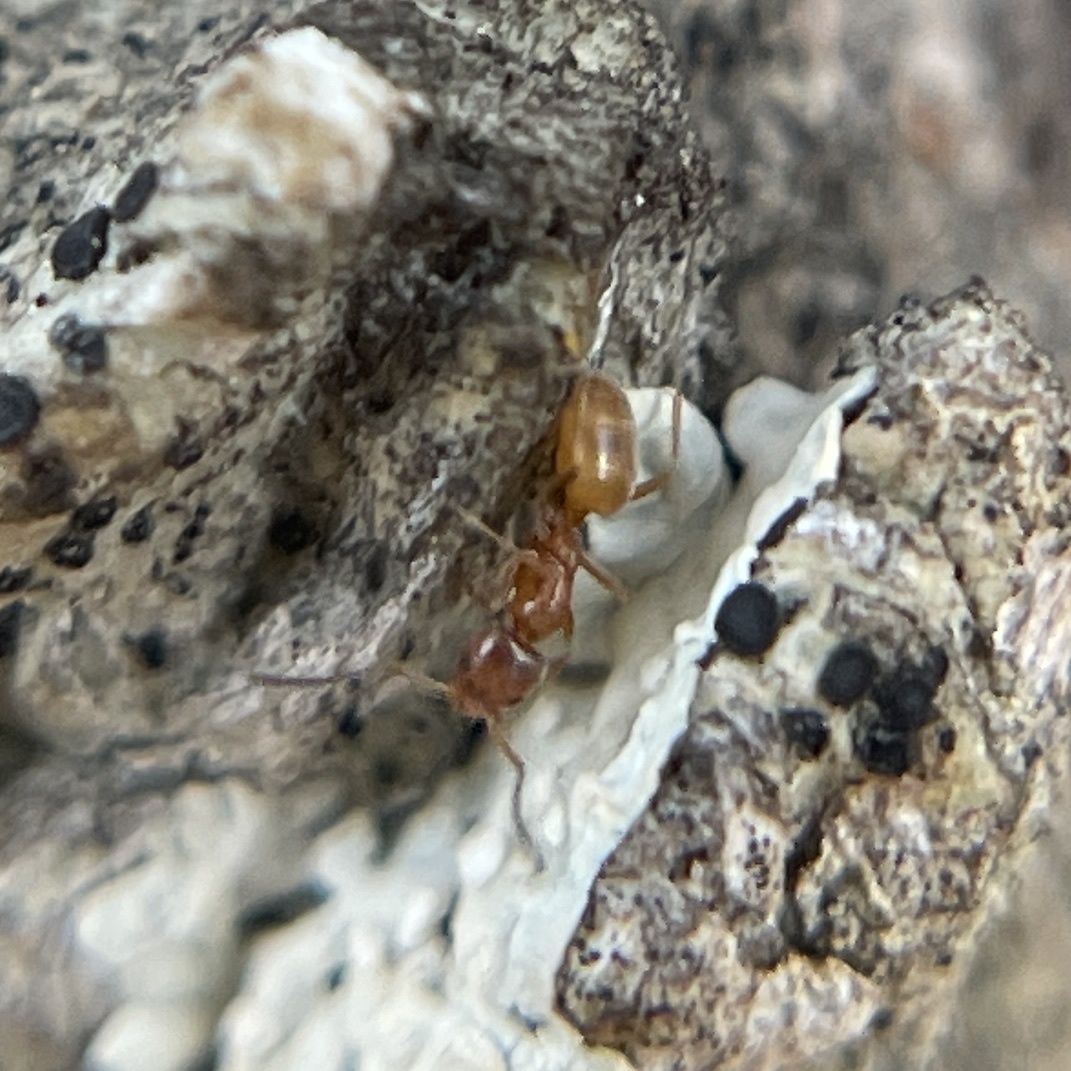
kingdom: Animalia
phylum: Arthropoda
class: Insecta
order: Hymenoptera
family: Formicidae
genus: Forelius
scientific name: Forelius
